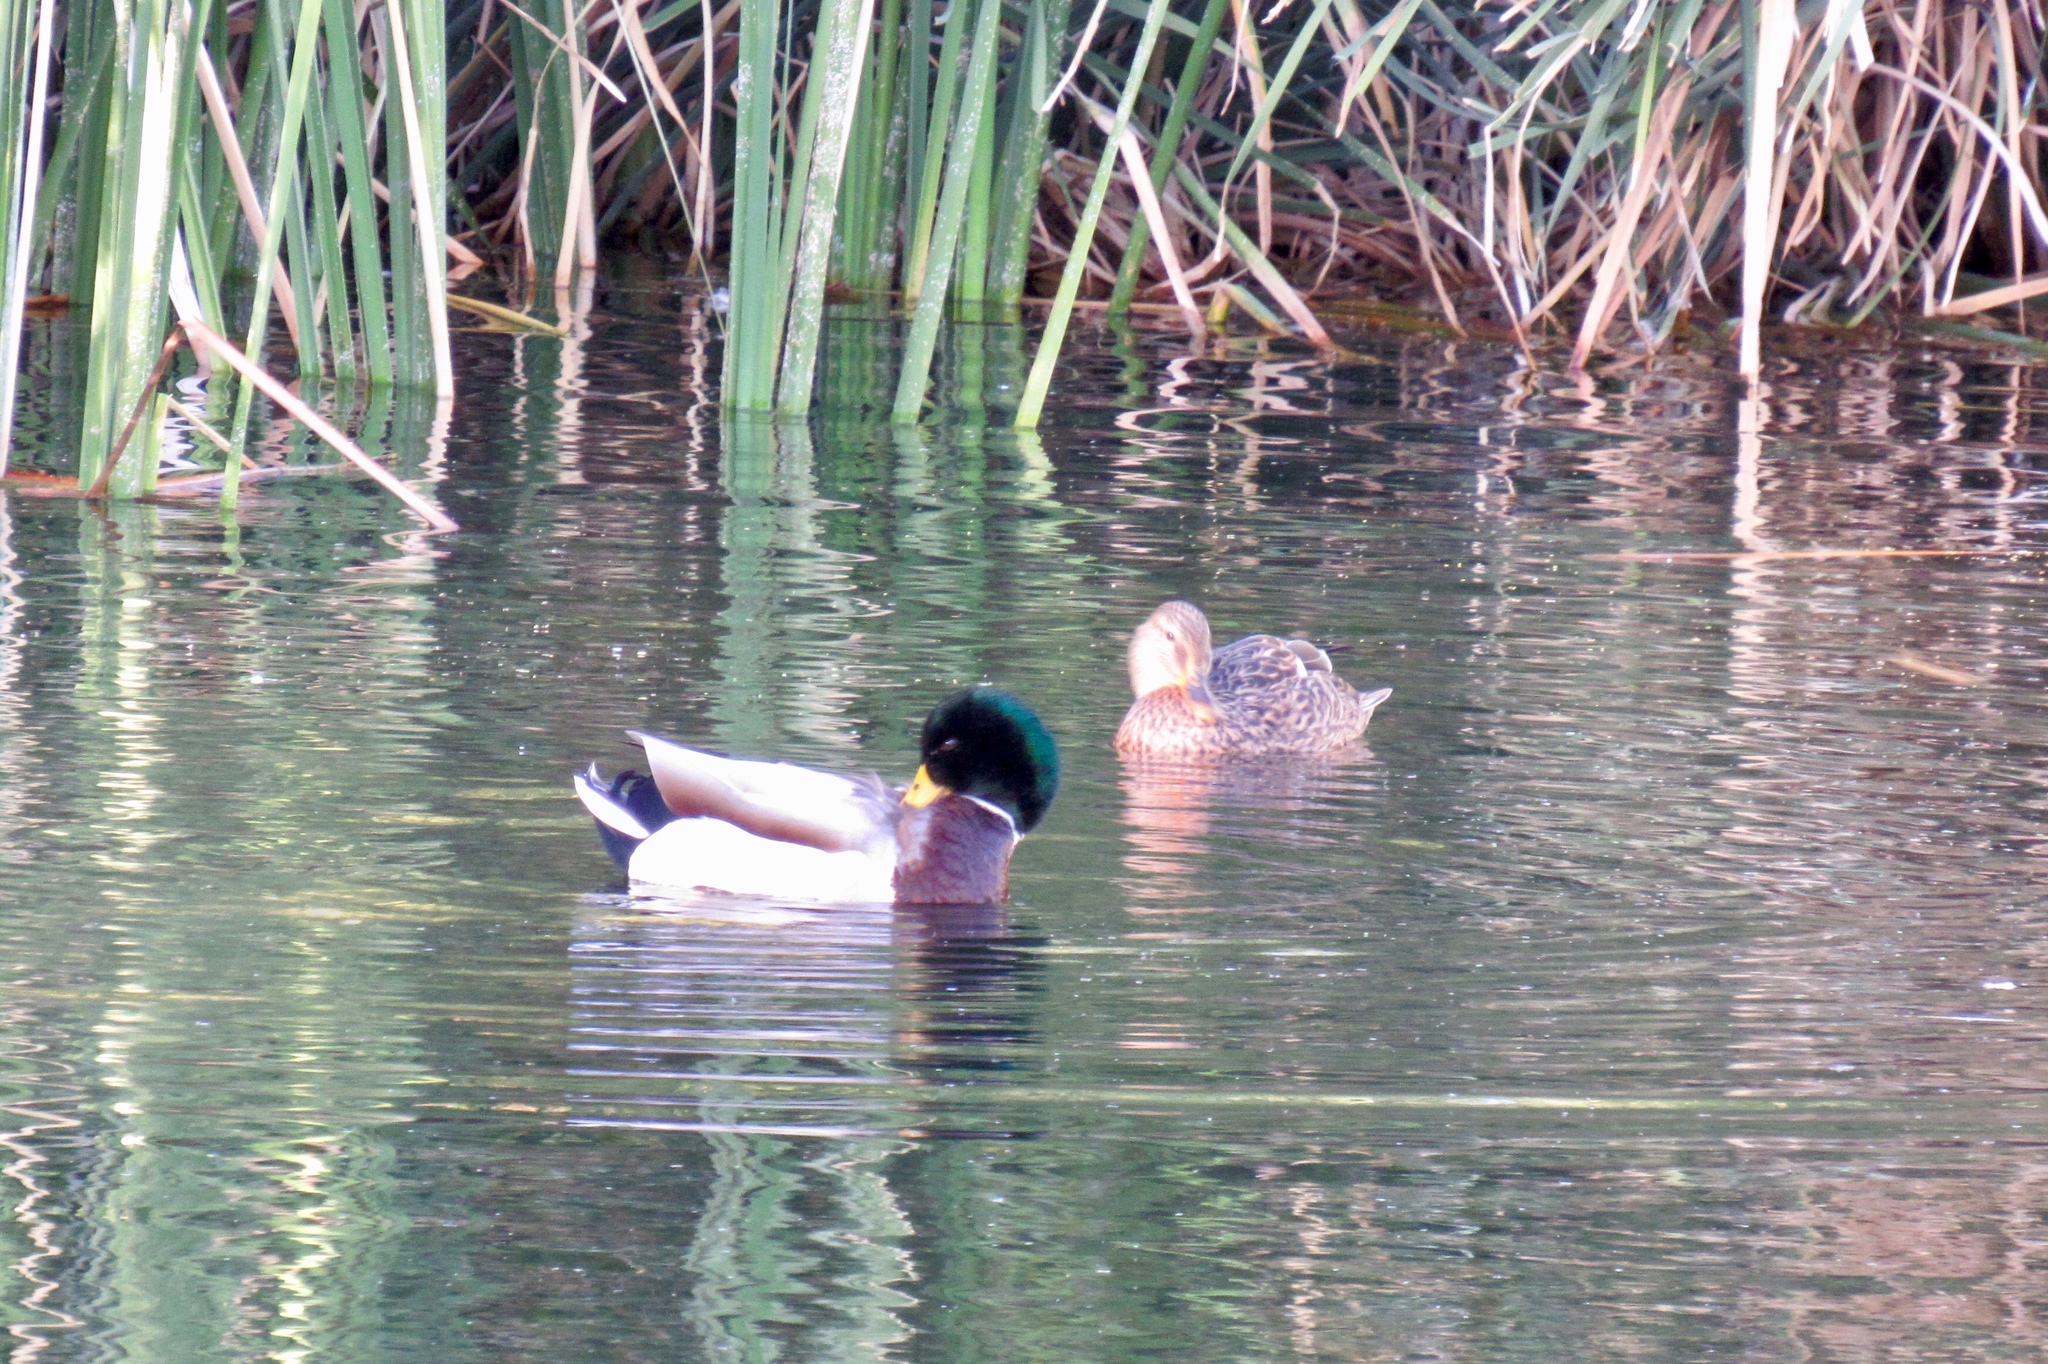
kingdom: Animalia
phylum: Chordata
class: Aves
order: Anseriformes
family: Anatidae
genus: Anas
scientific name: Anas platyrhynchos
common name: Mallard
